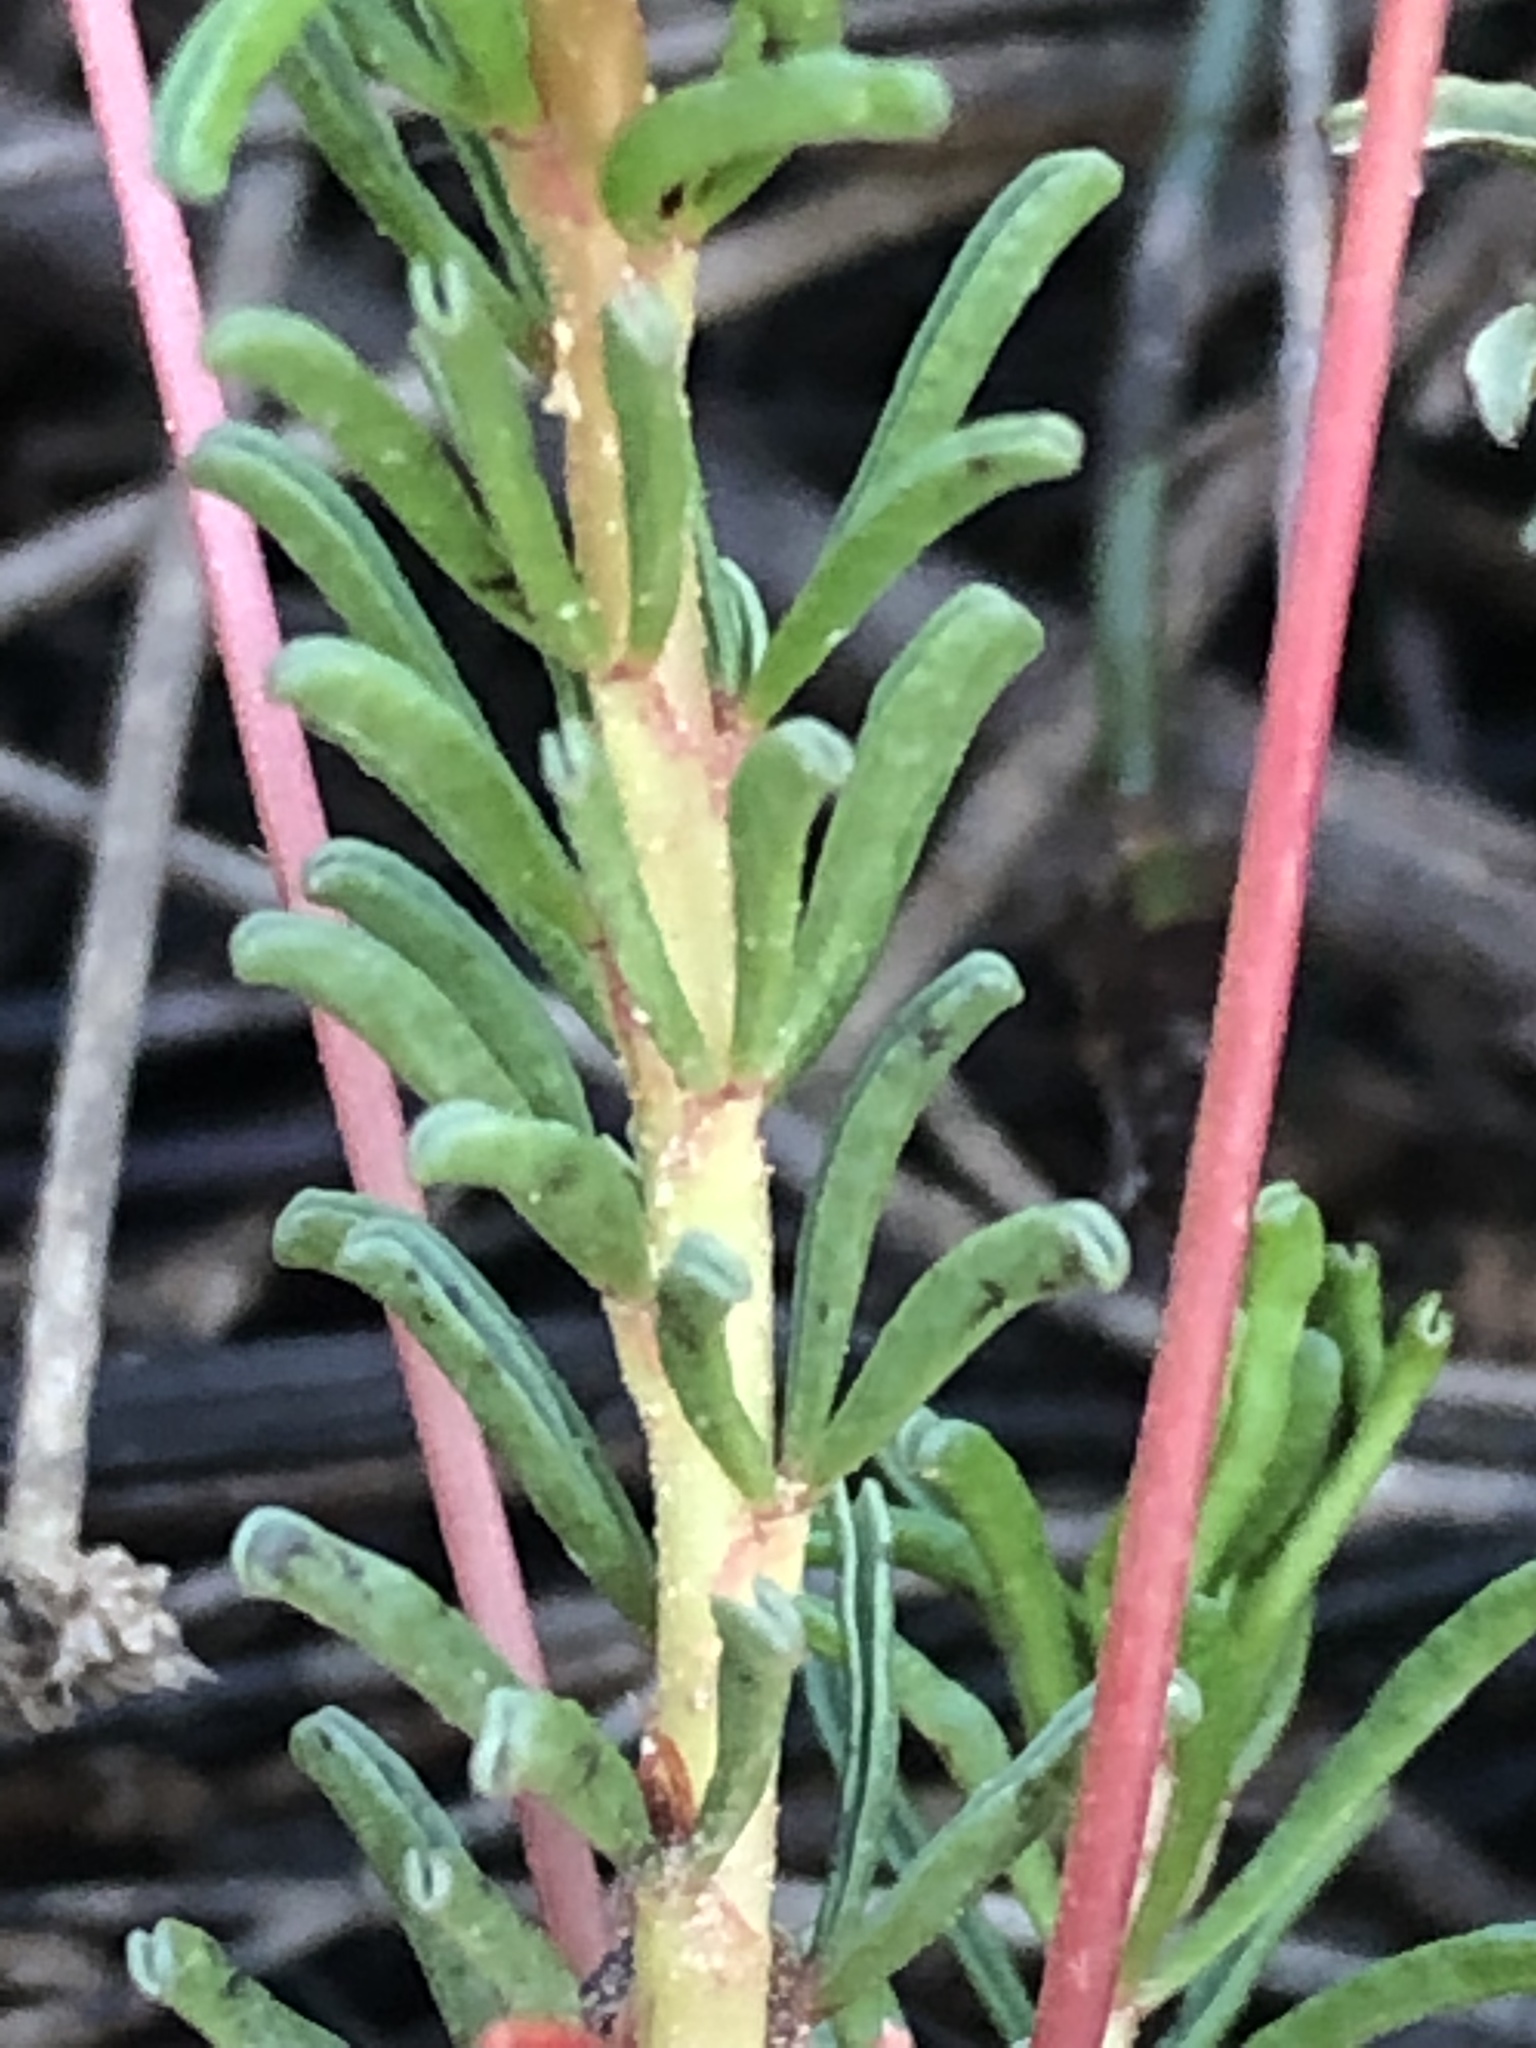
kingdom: Plantae
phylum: Tracheophyta
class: Magnoliopsida
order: Oxalidales
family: Oxalidaceae
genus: Oxalis
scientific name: Oxalis confertifolia
